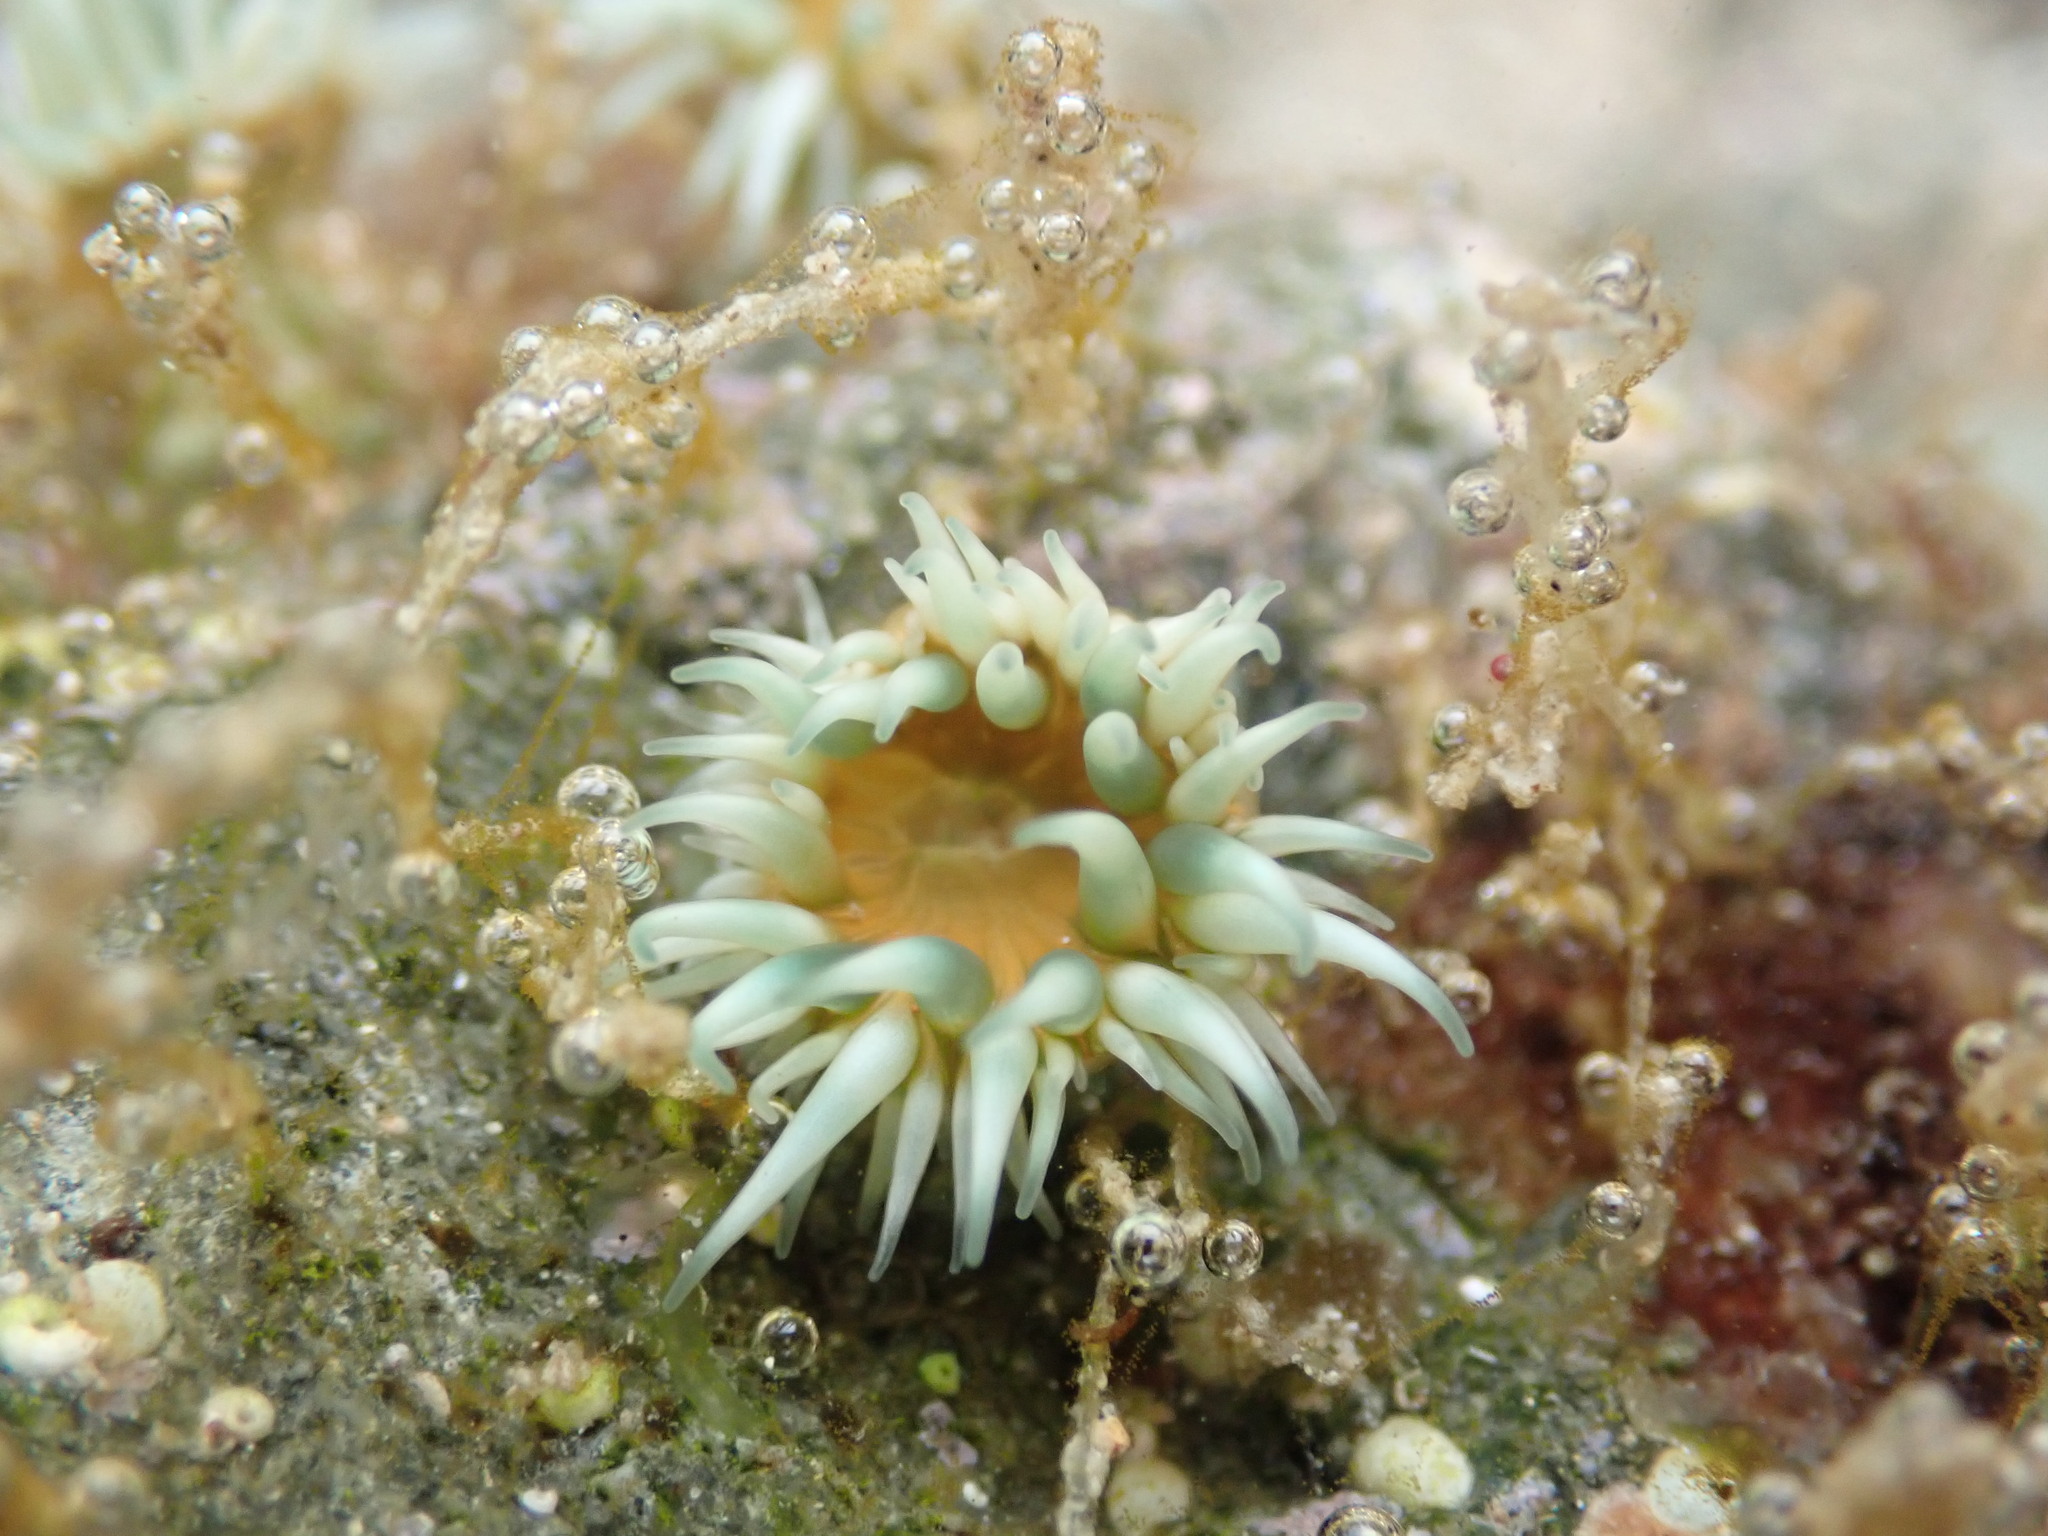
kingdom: Animalia
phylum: Cnidaria
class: Anthozoa
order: Actiniaria
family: Sagartiidae
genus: Anthothoe
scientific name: Anthothoe albocincta
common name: Orange striped anemone
